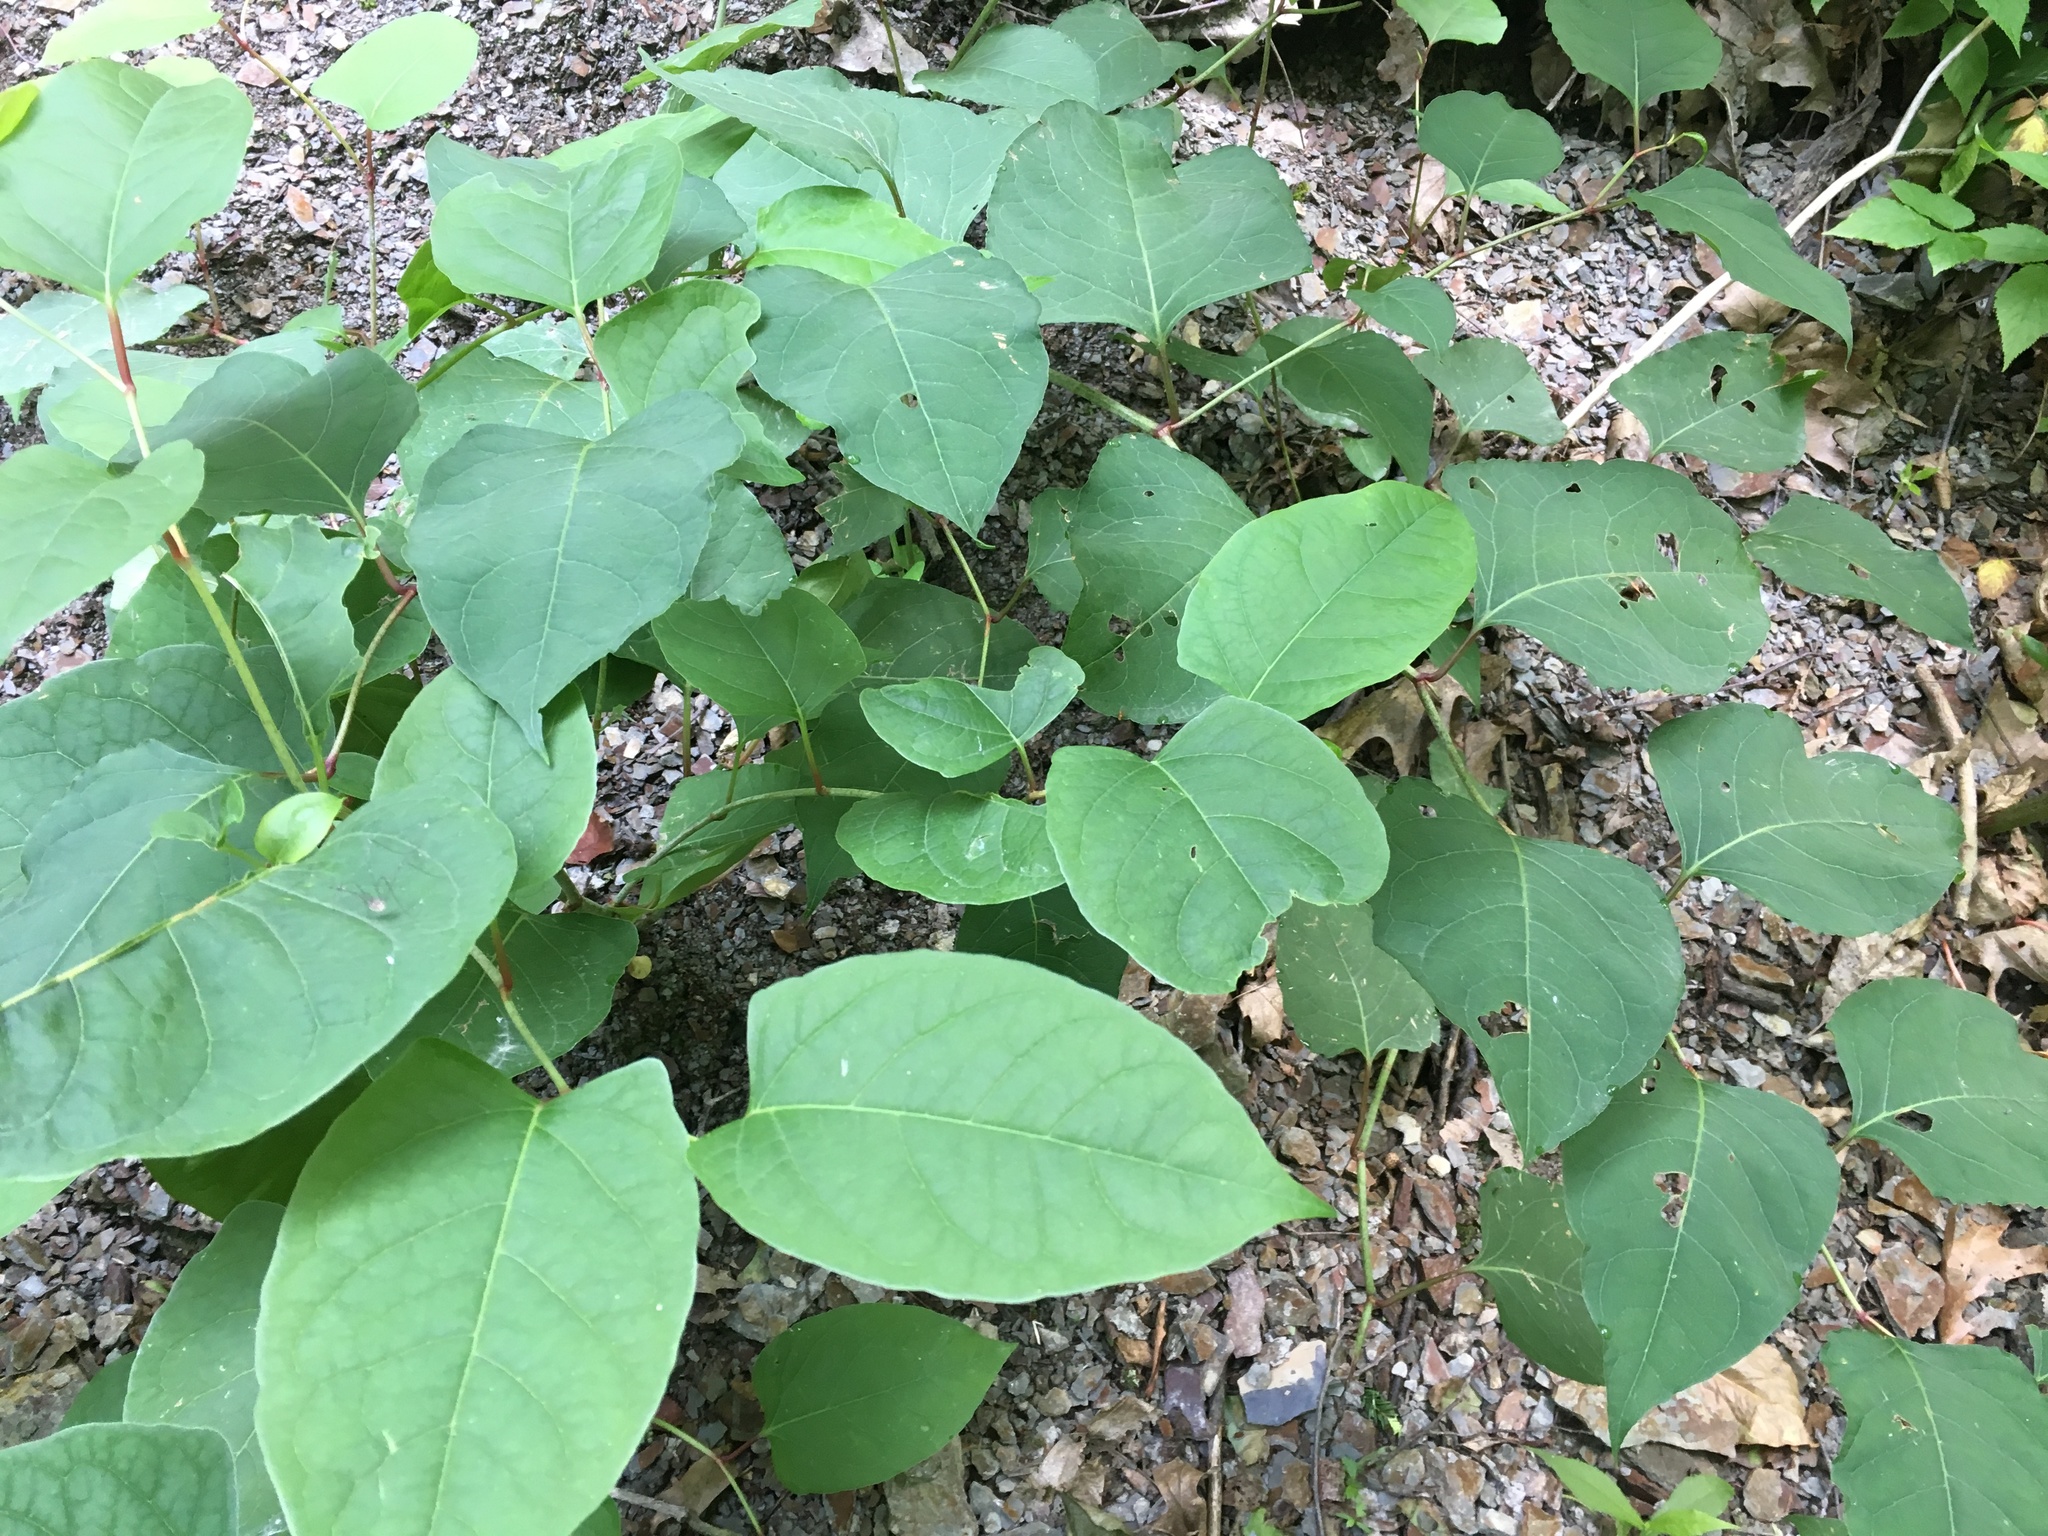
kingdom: Plantae
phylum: Tracheophyta
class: Magnoliopsida
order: Caryophyllales
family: Polygonaceae
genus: Reynoutria
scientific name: Reynoutria japonica
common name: Japanese knotweed
